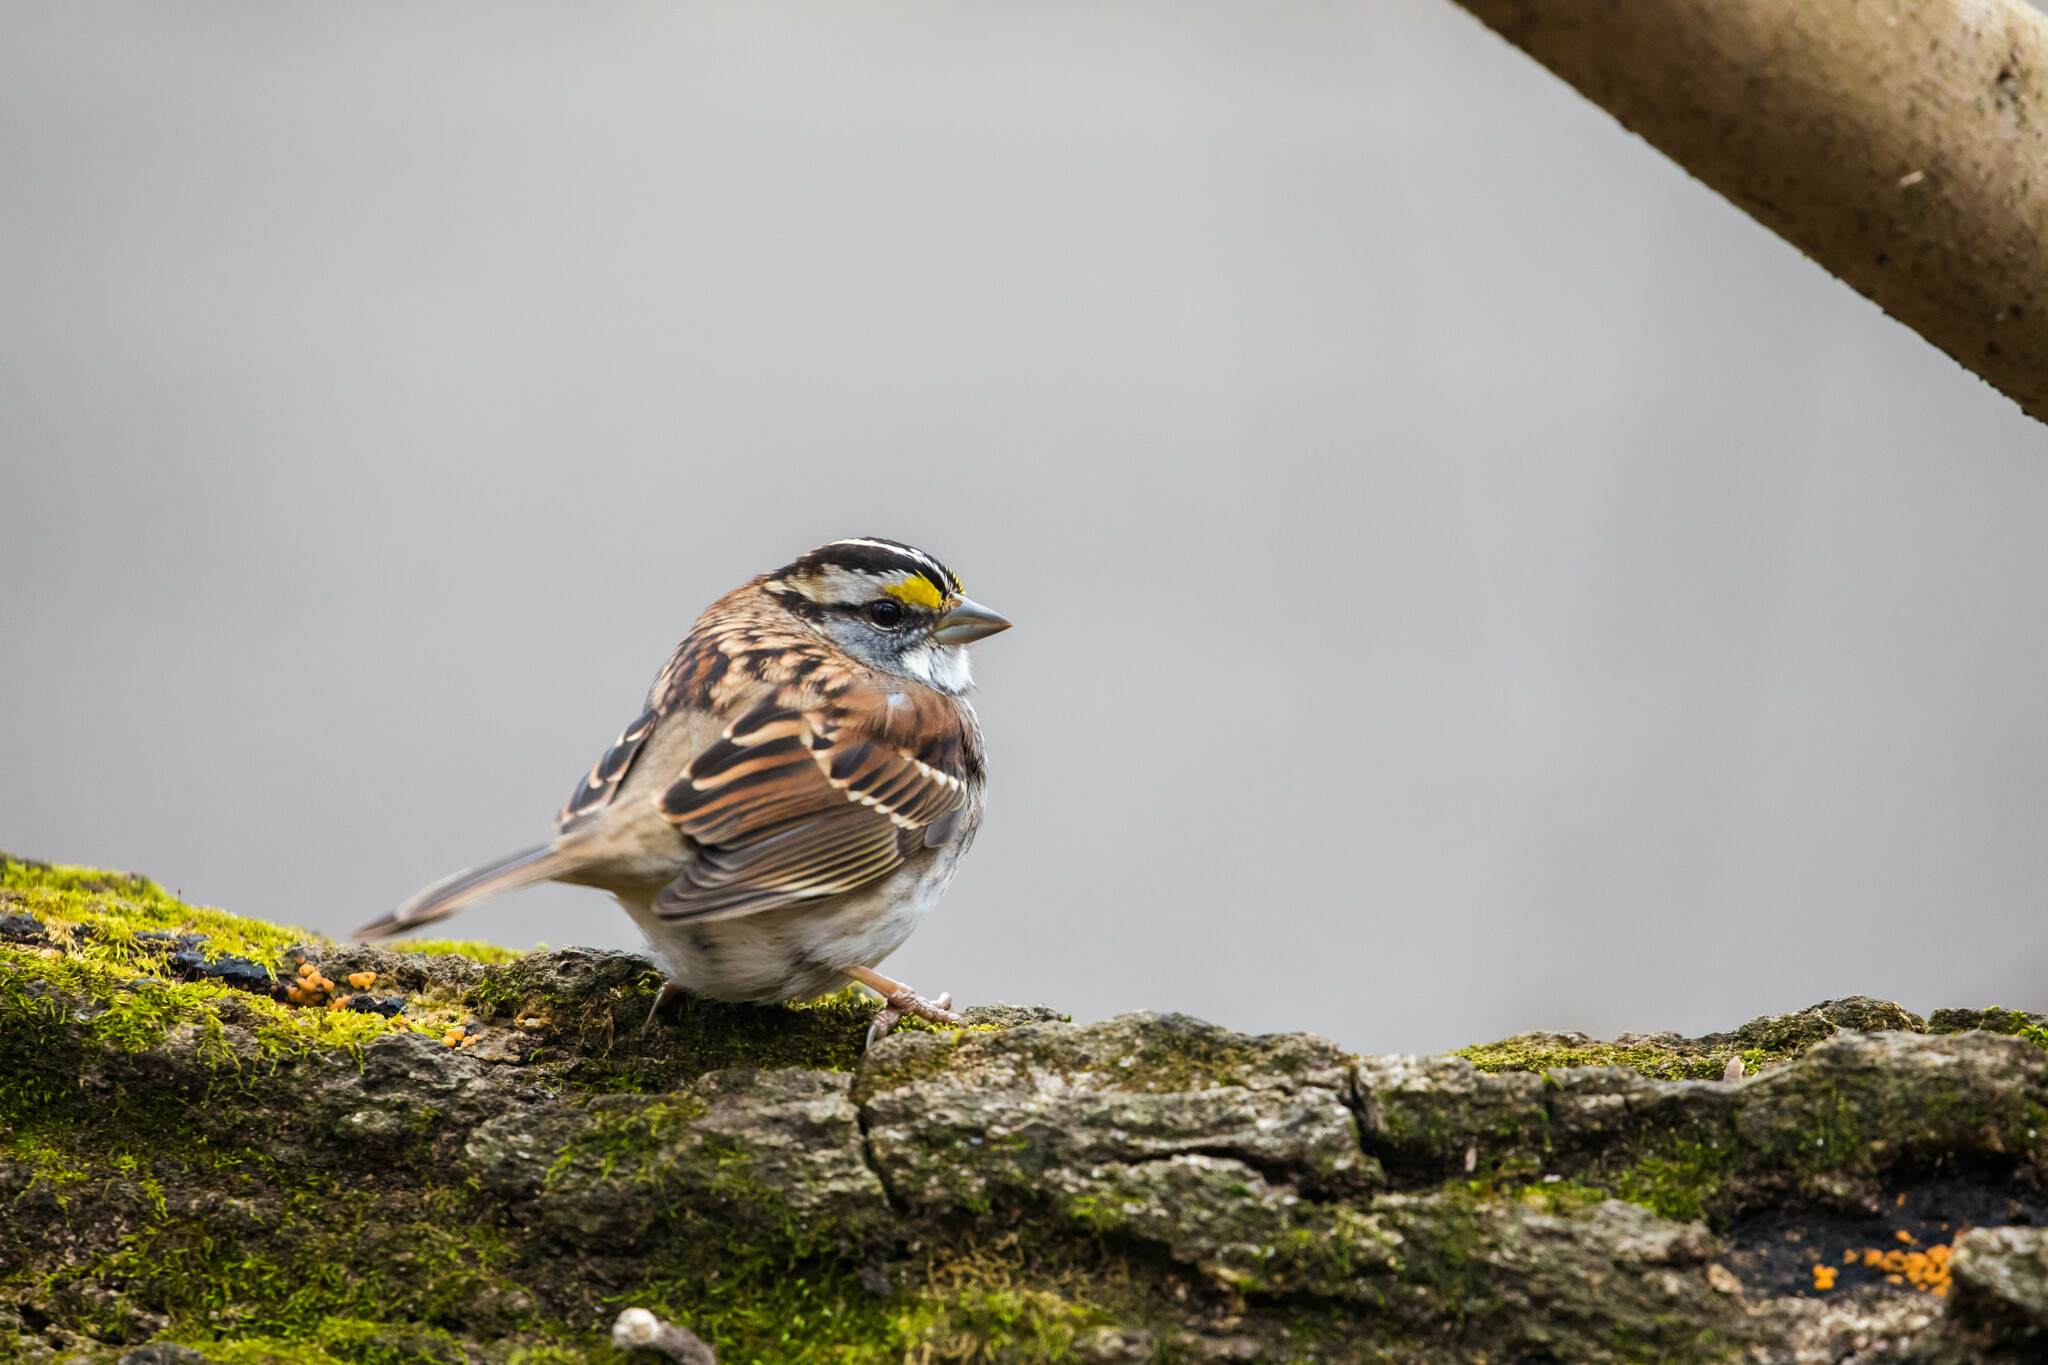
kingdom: Animalia
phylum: Chordata
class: Aves
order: Passeriformes
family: Passerellidae
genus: Zonotrichia
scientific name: Zonotrichia albicollis
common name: White-throated sparrow
